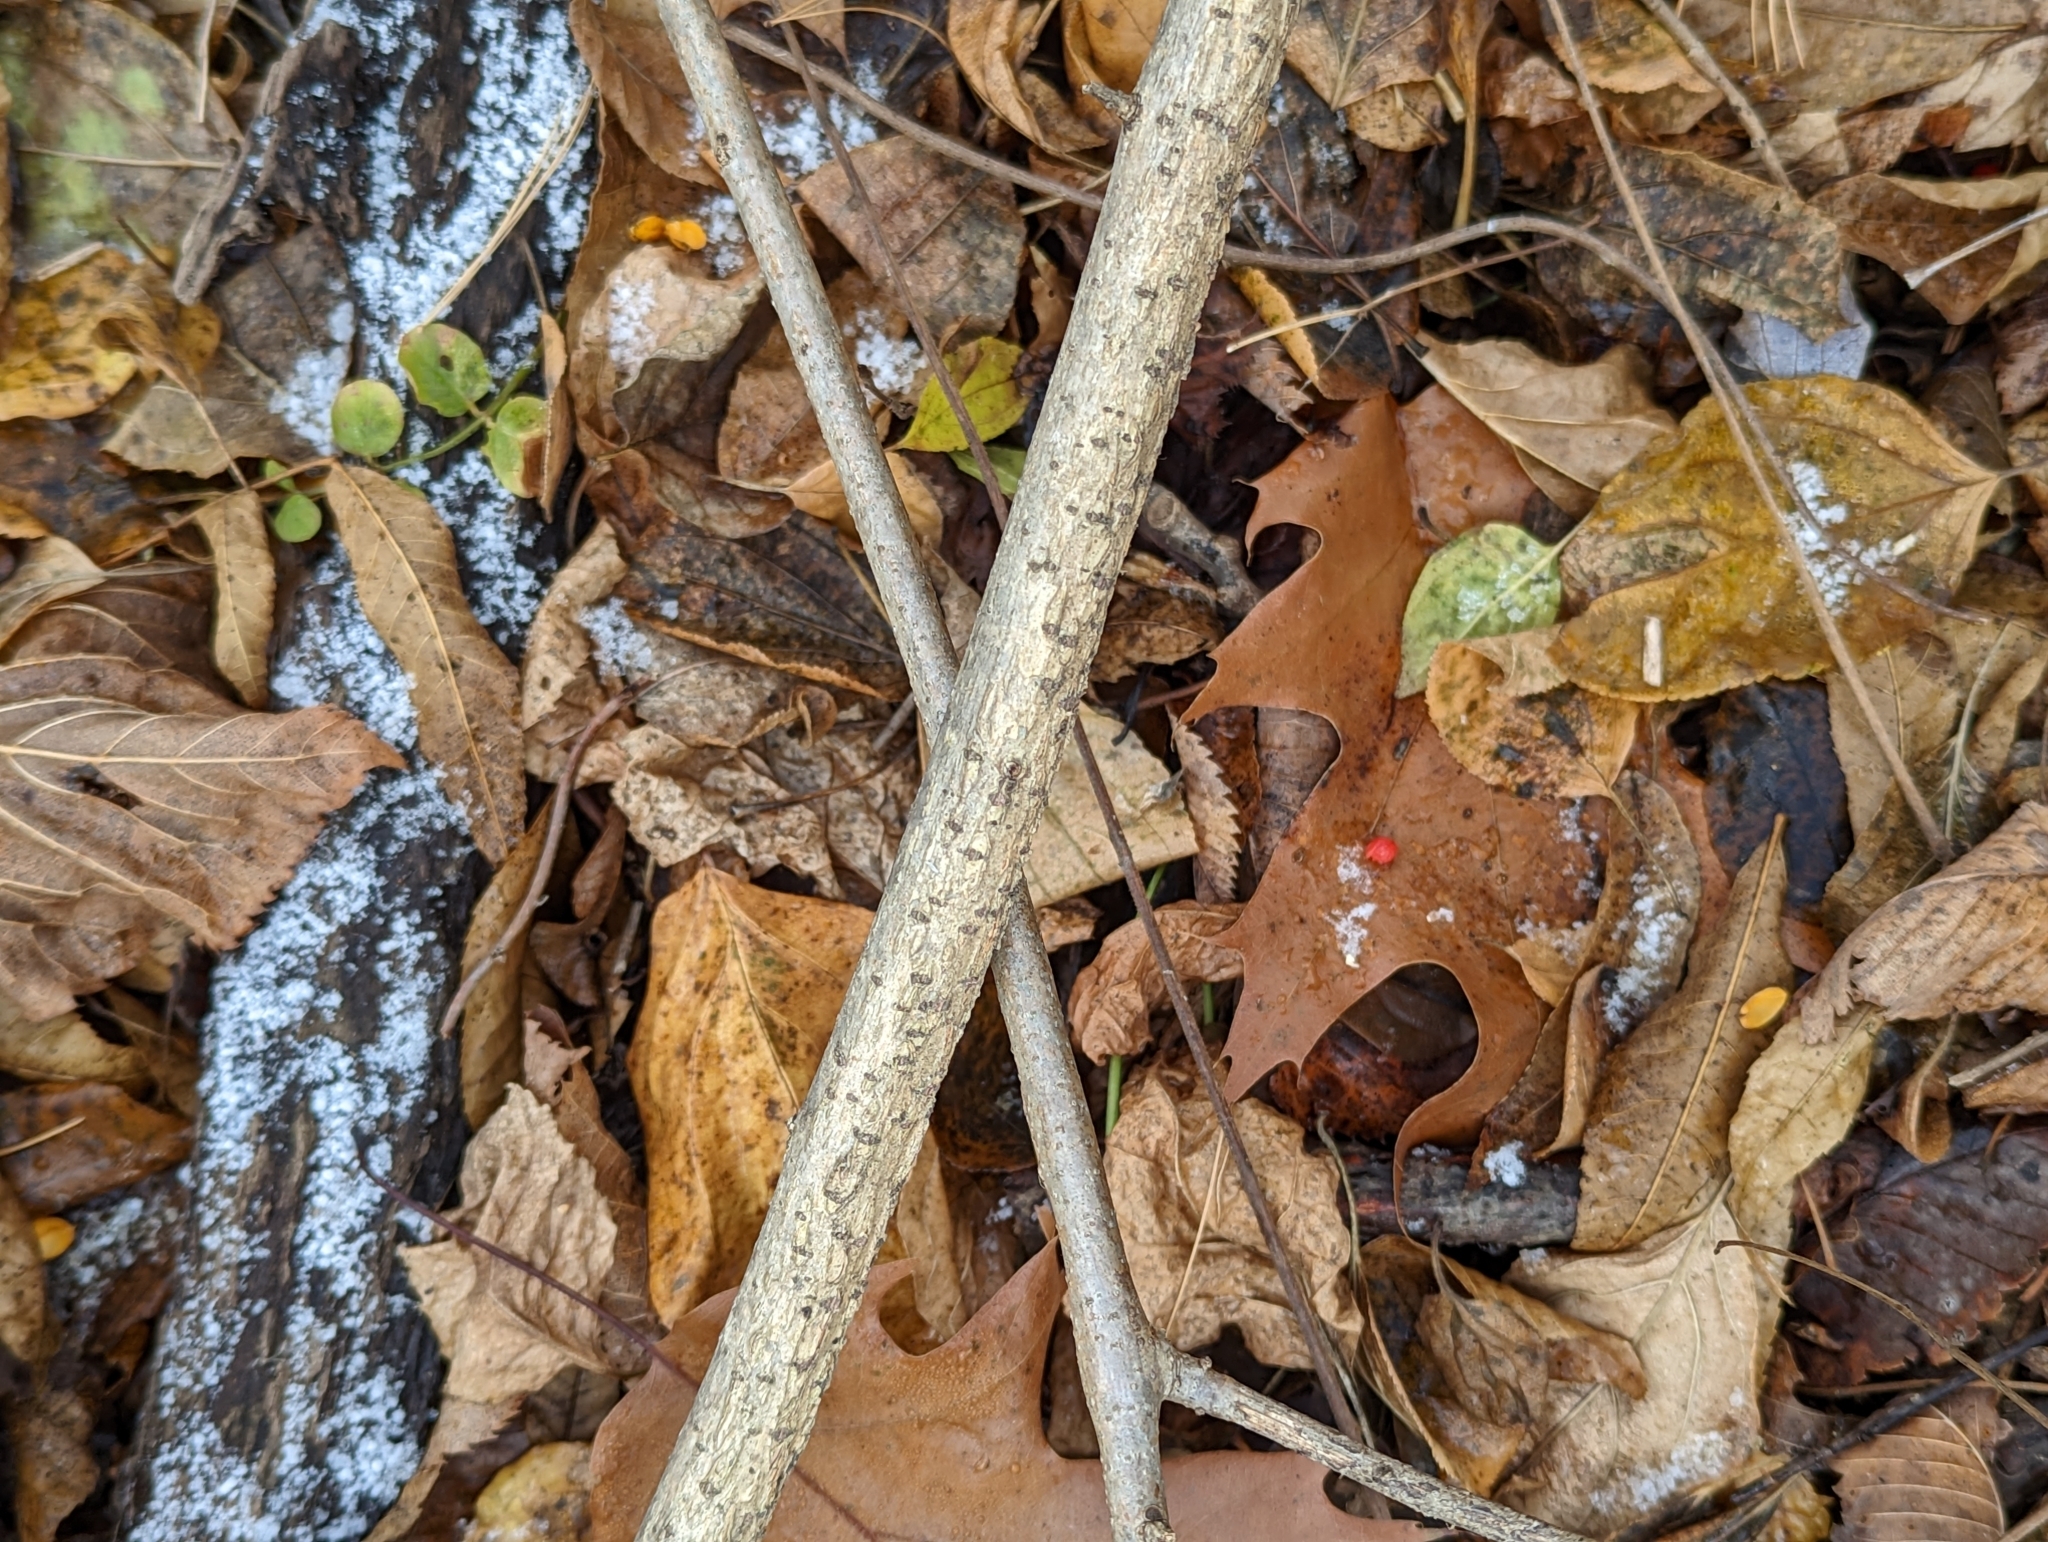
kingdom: Plantae
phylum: Tracheophyta
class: Magnoliopsida
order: Celastrales
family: Celastraceae
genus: Celastrus
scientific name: Celastrus orbiculatus
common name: Oriental bittersweet
